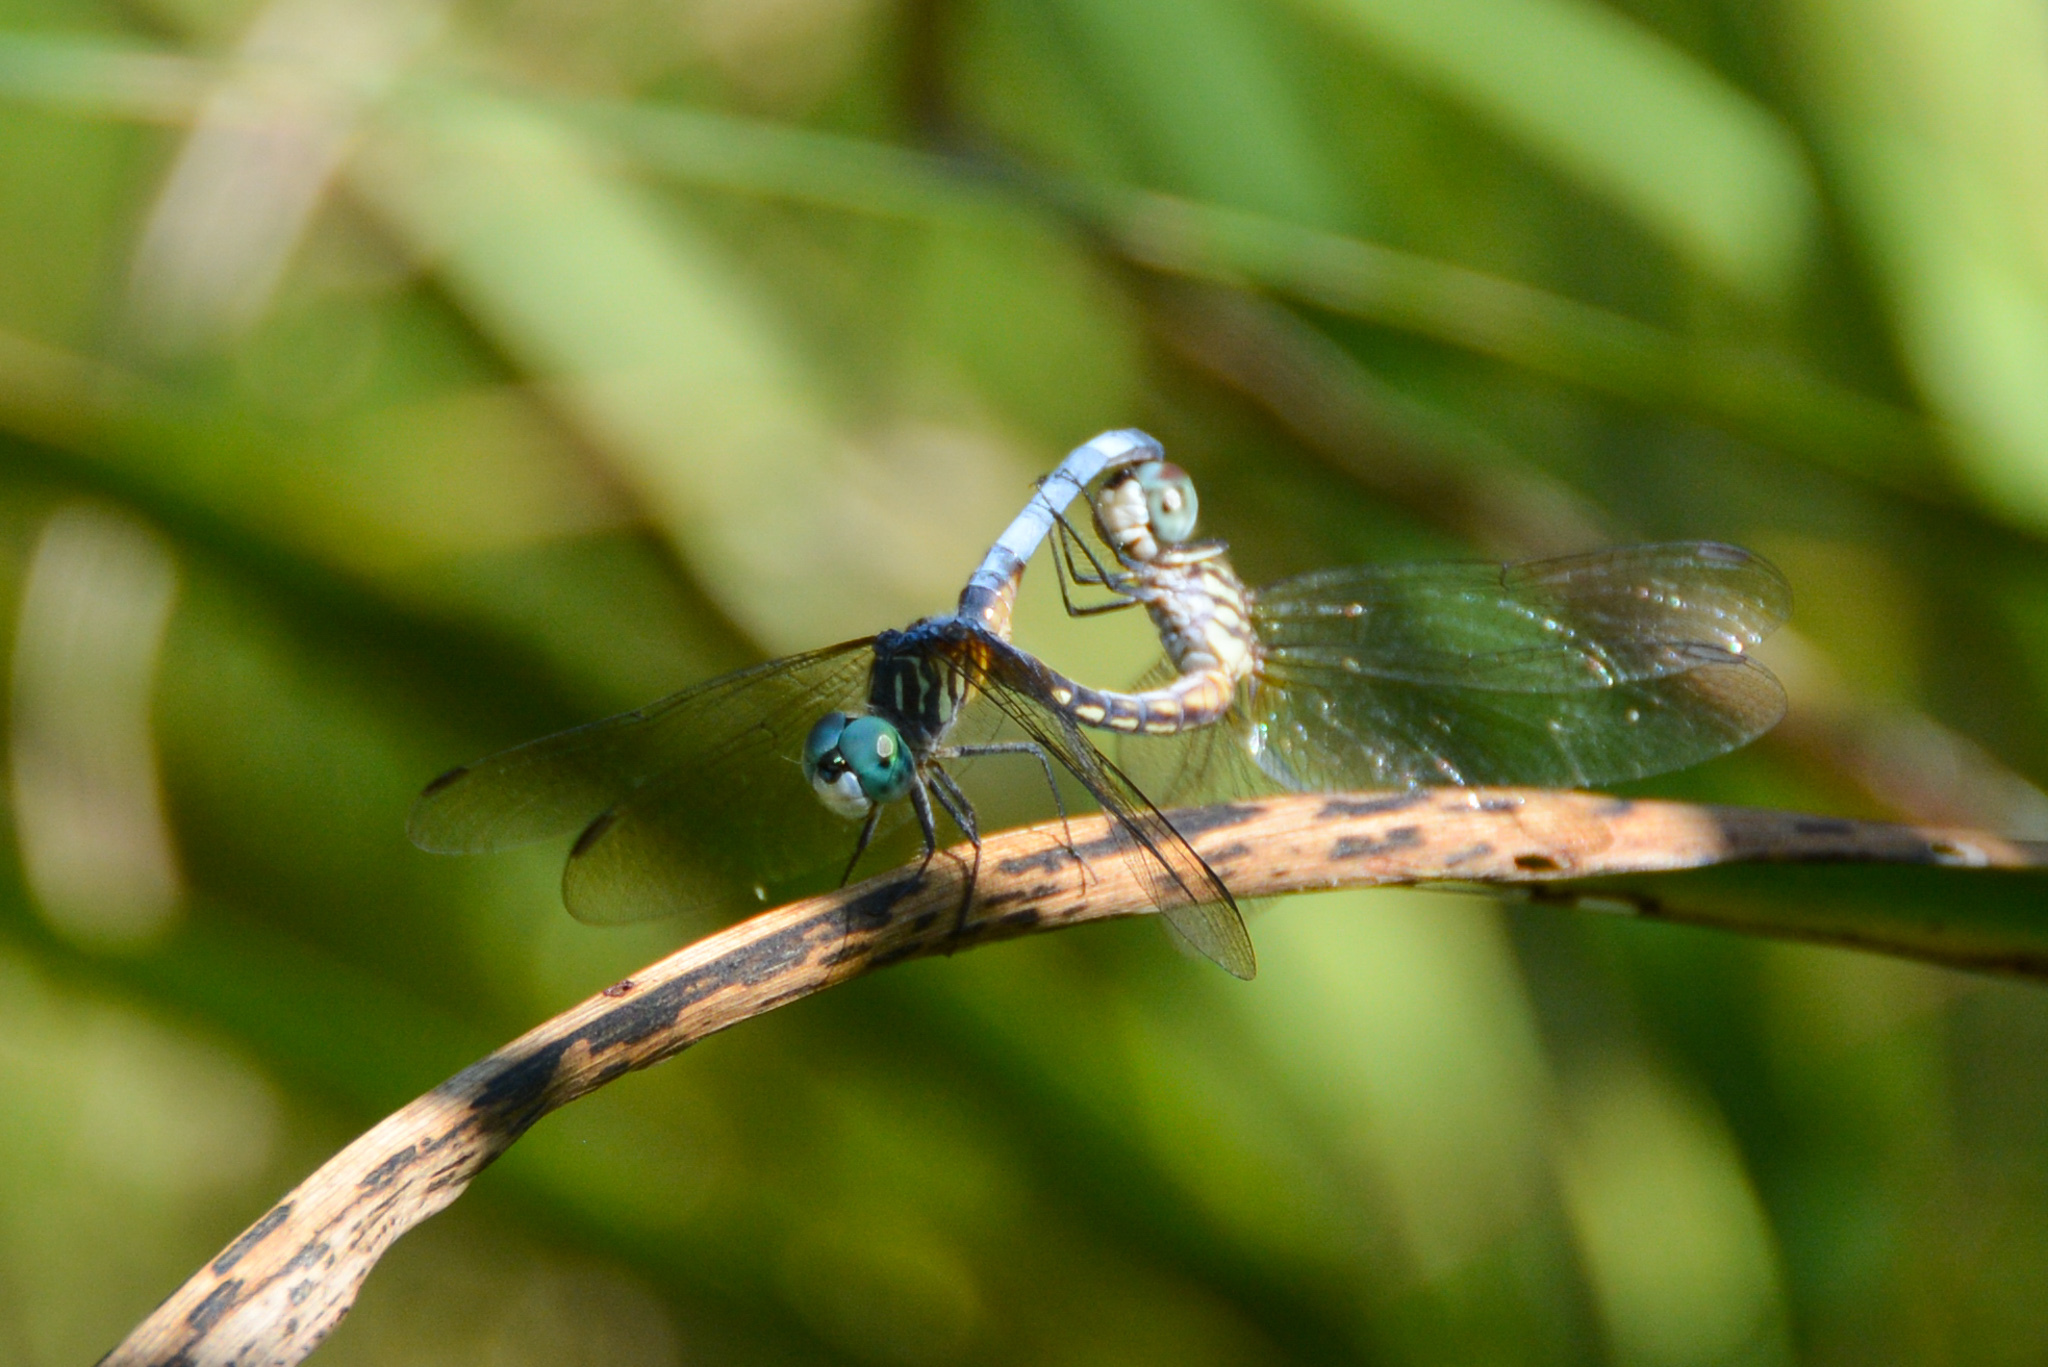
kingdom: Animalia
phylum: Arthropoda
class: Insecta
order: Odonata
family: Libellulidae
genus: Pachydiplax
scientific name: Pachydiplax longipennis
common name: Blue dasher
